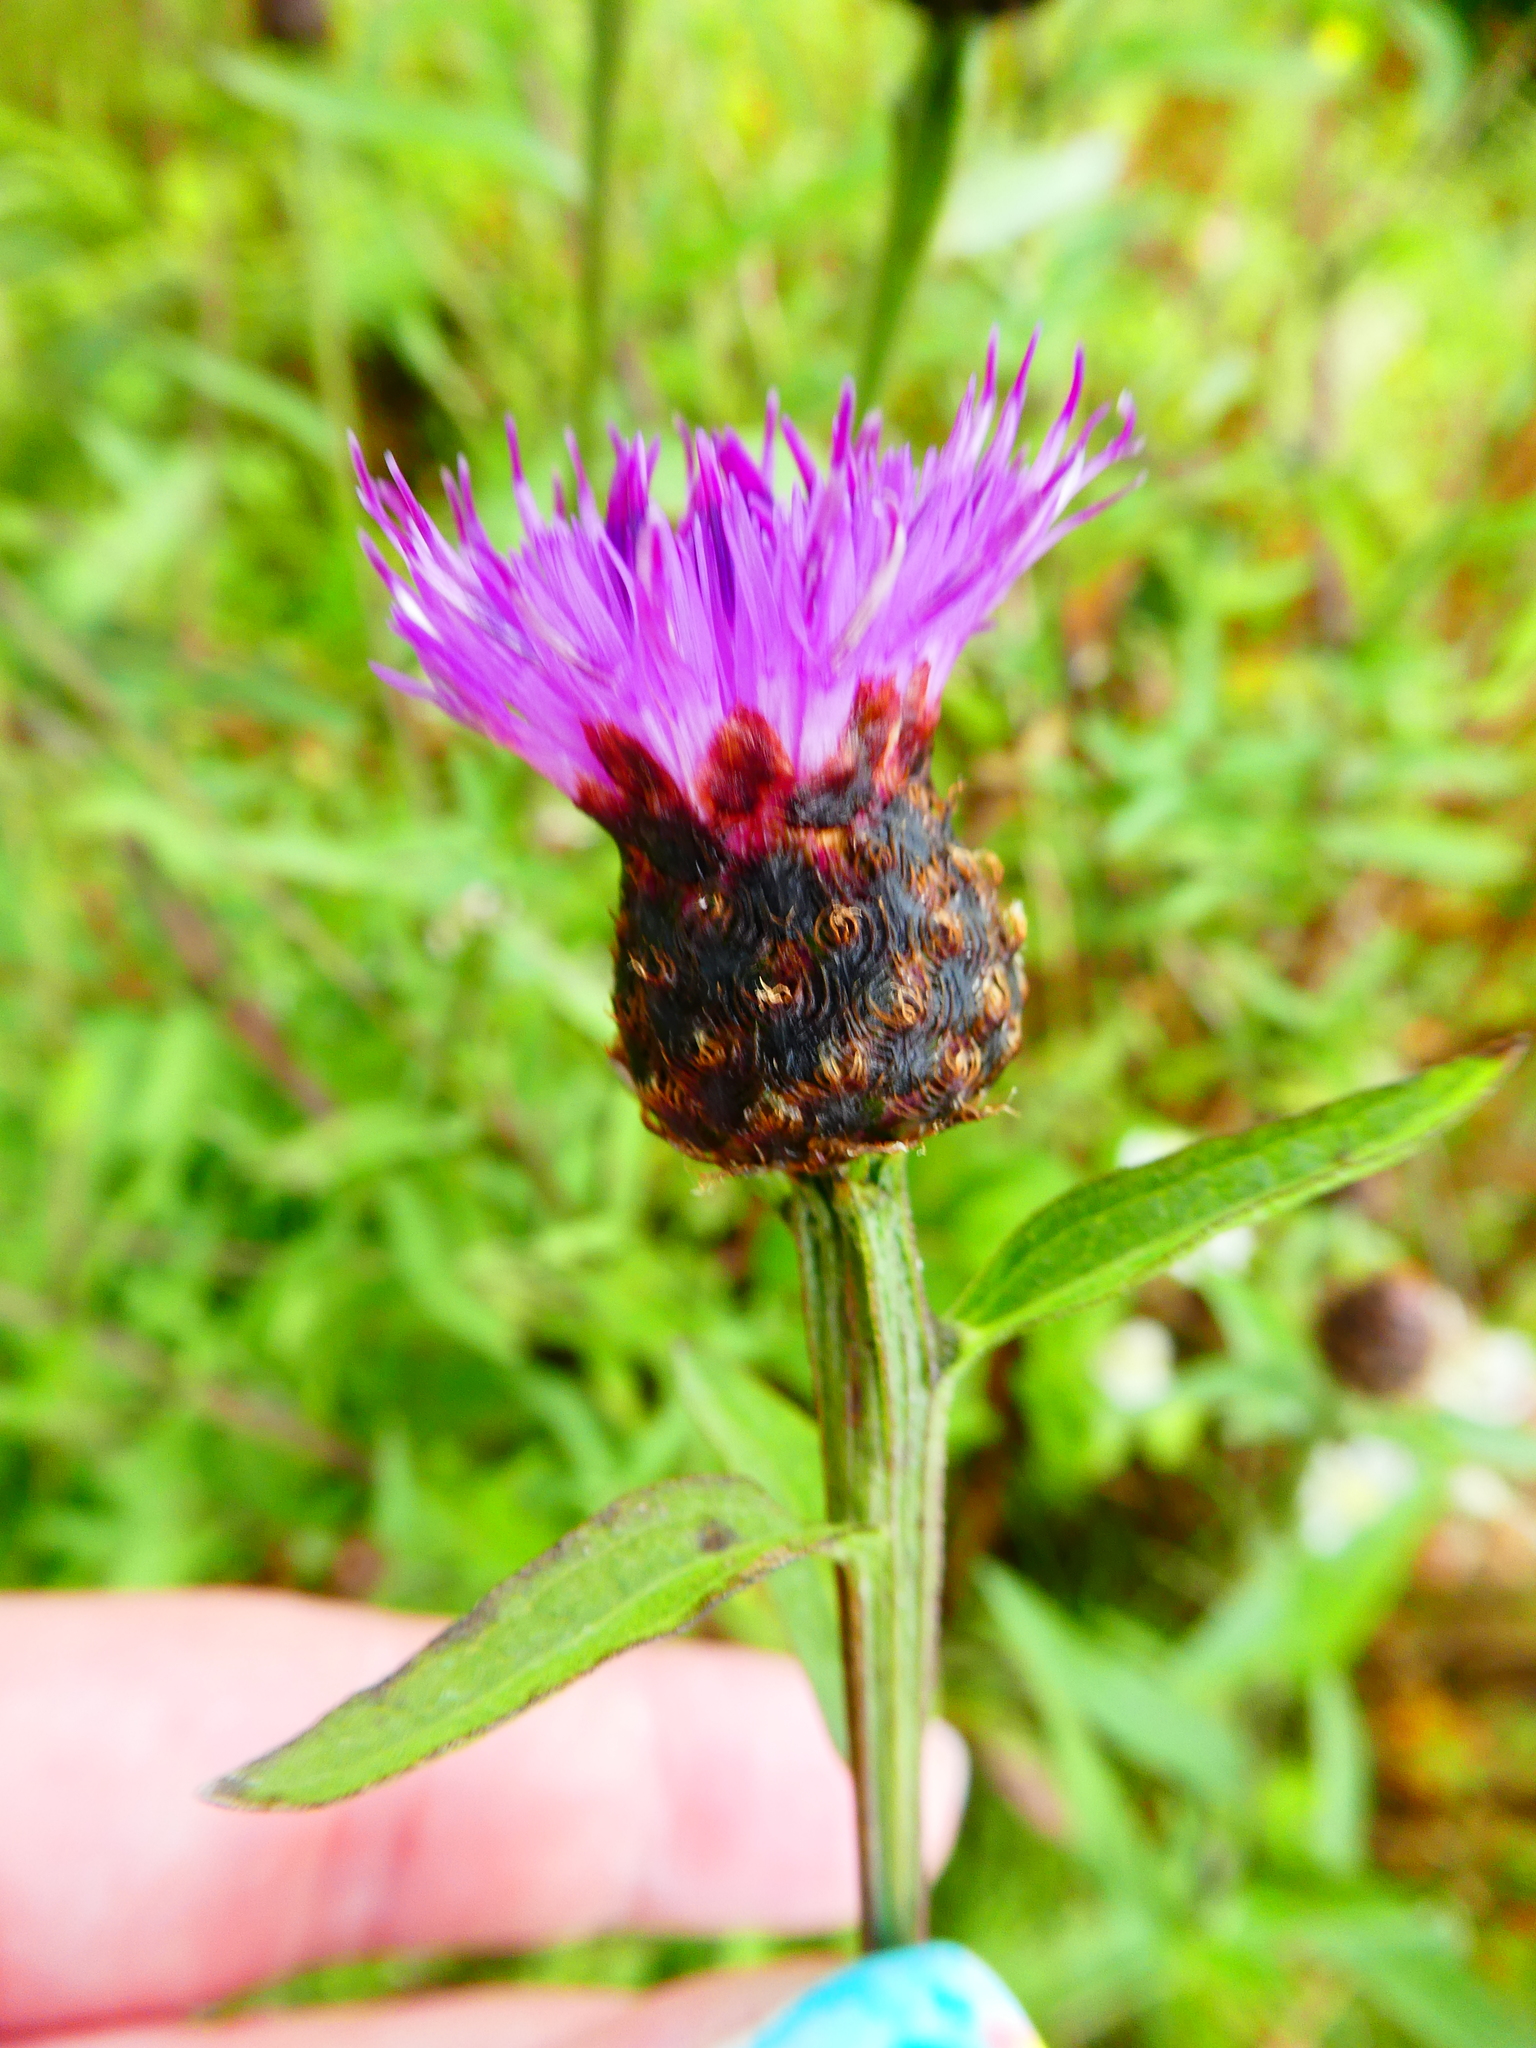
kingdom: Plantae
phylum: Tracheophyta
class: Magnoliopsida
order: Asterales
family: Asteraceae
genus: Centaurea
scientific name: Centaurea nigra
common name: Lesser knapweed
